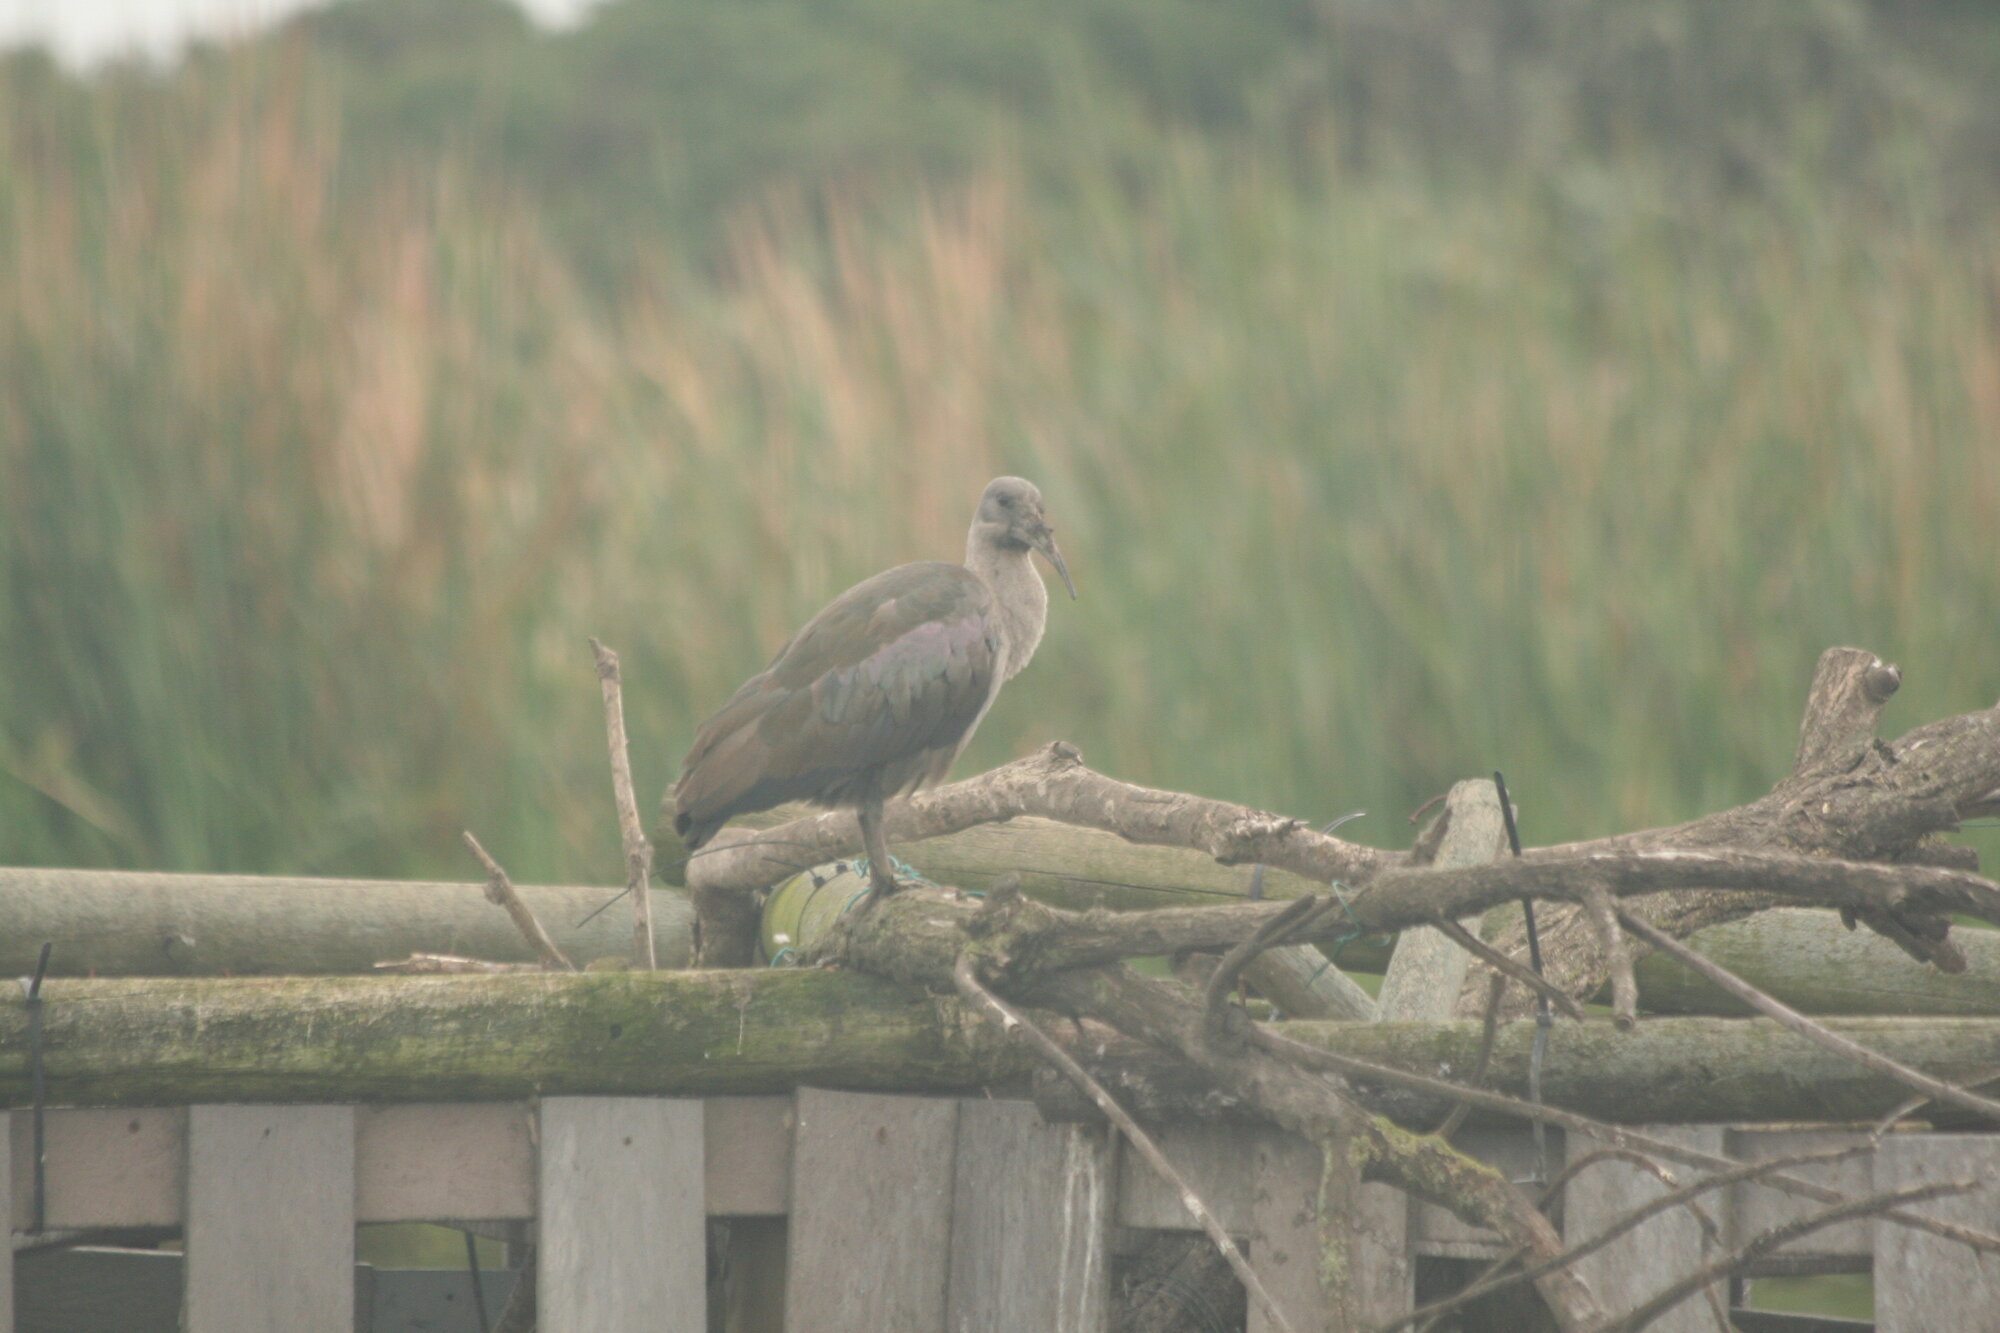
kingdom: Animalia
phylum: Chordata
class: Aves
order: Pelecaniformes
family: Threskiornithidae
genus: Bostrychia
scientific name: Bostrychia hagedash
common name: Hadada ibis
